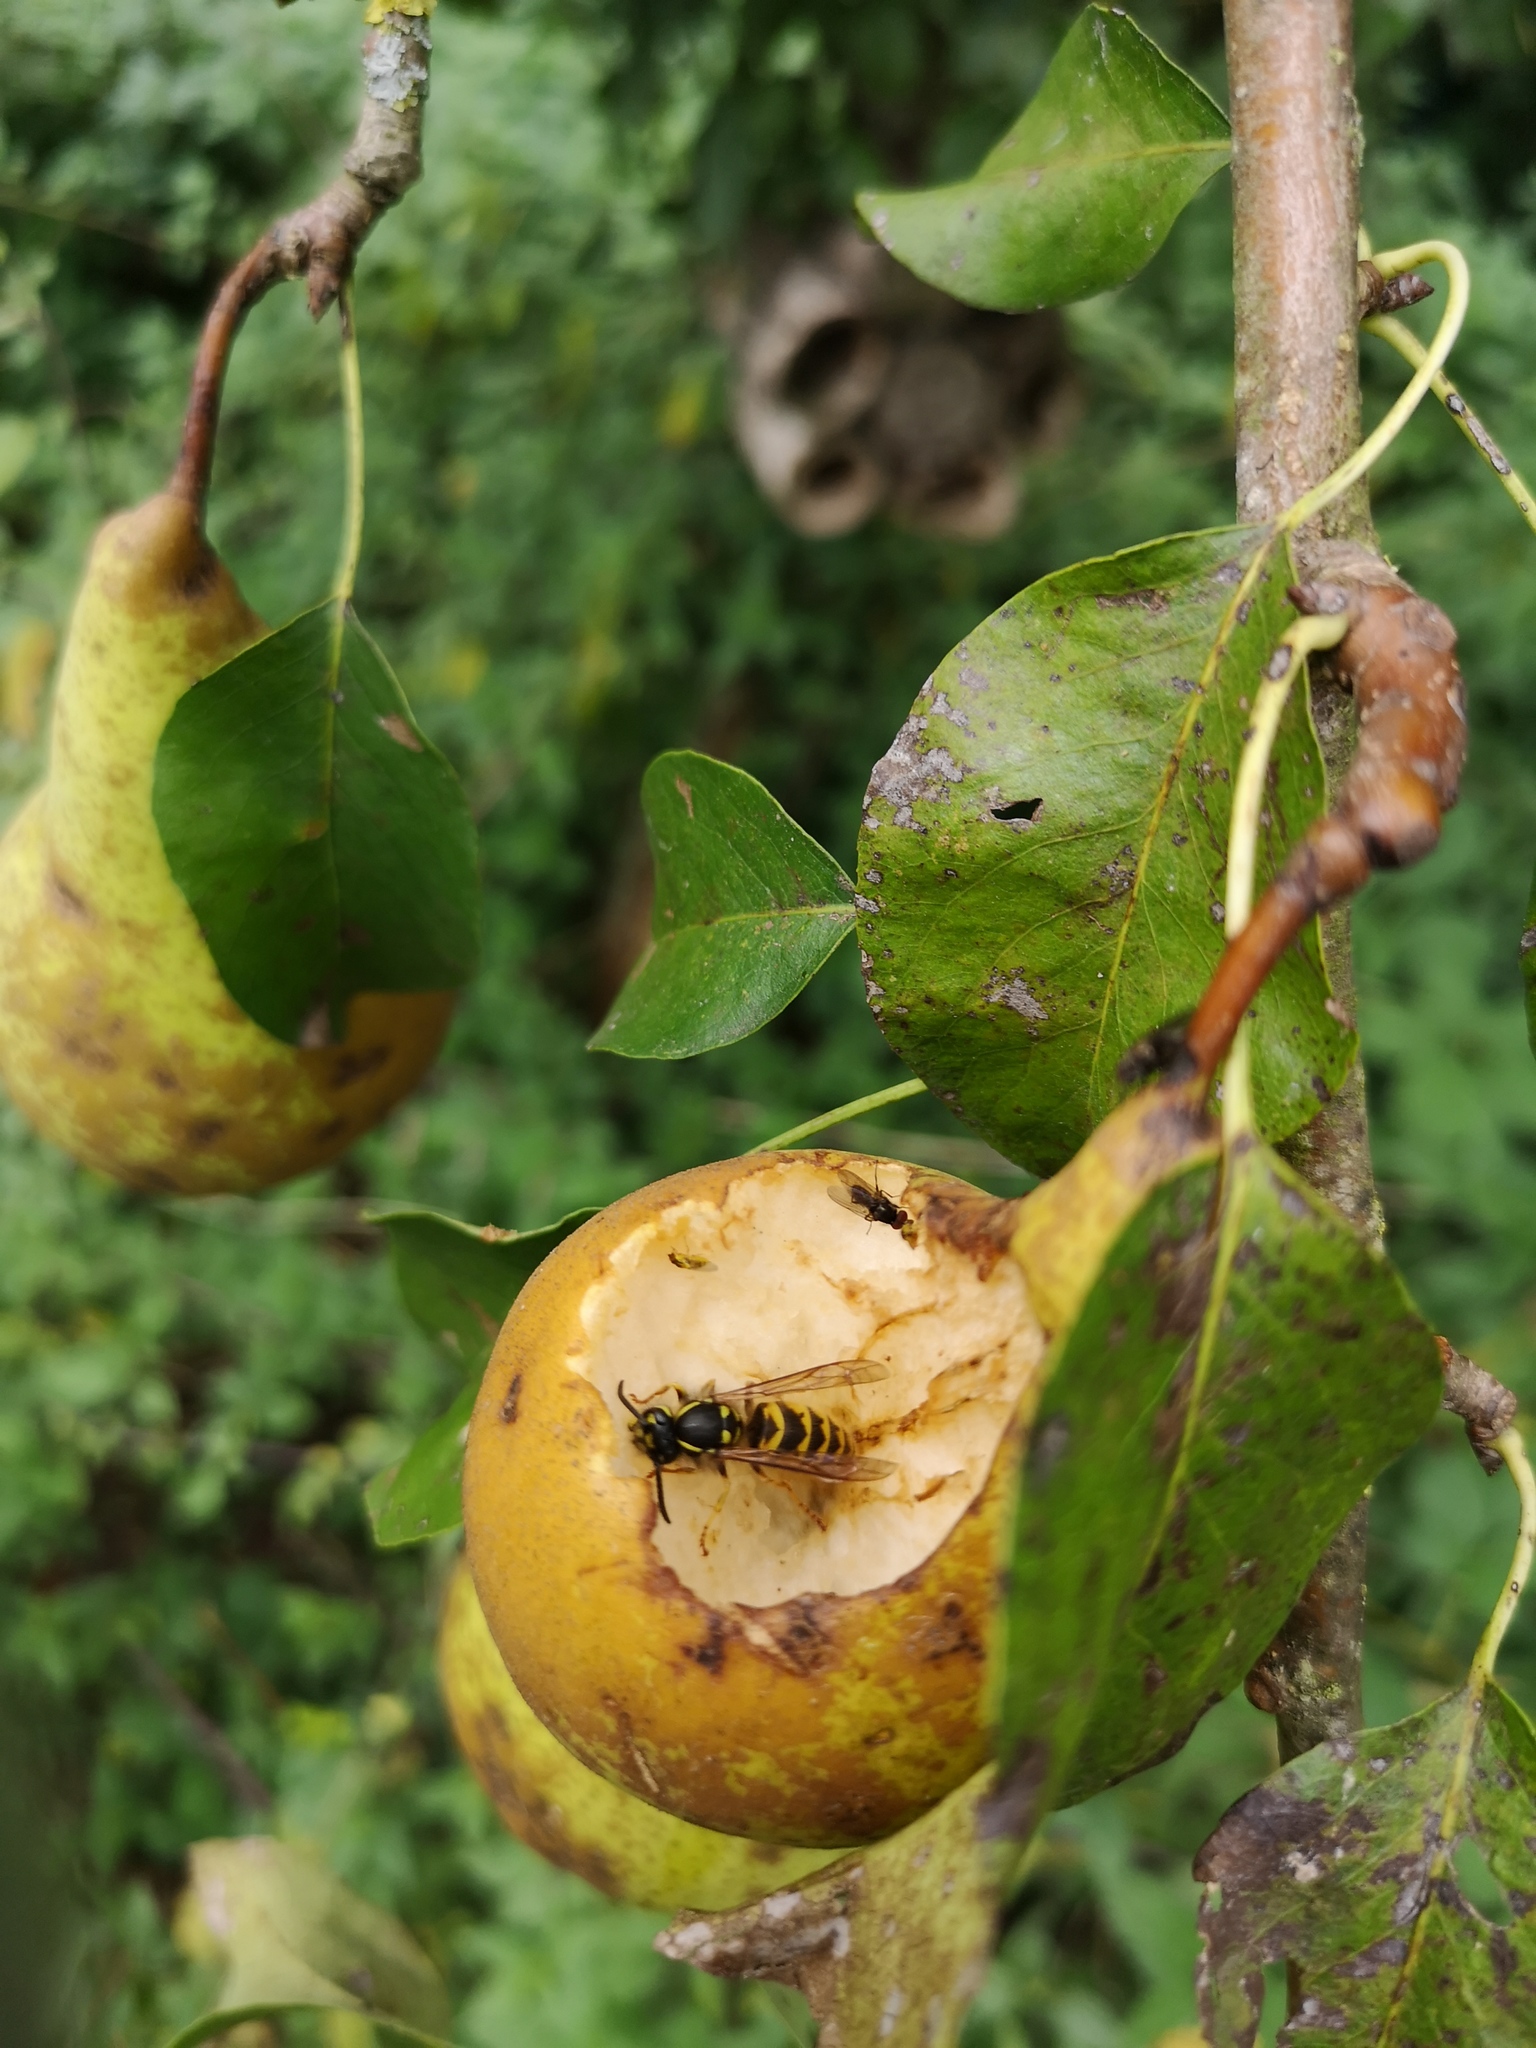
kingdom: Animalia
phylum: Arthropoda
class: Insecta
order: Hymenoptera
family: Vespidae
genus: Vespula
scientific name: Vespula vulgaris
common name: Common wasp
